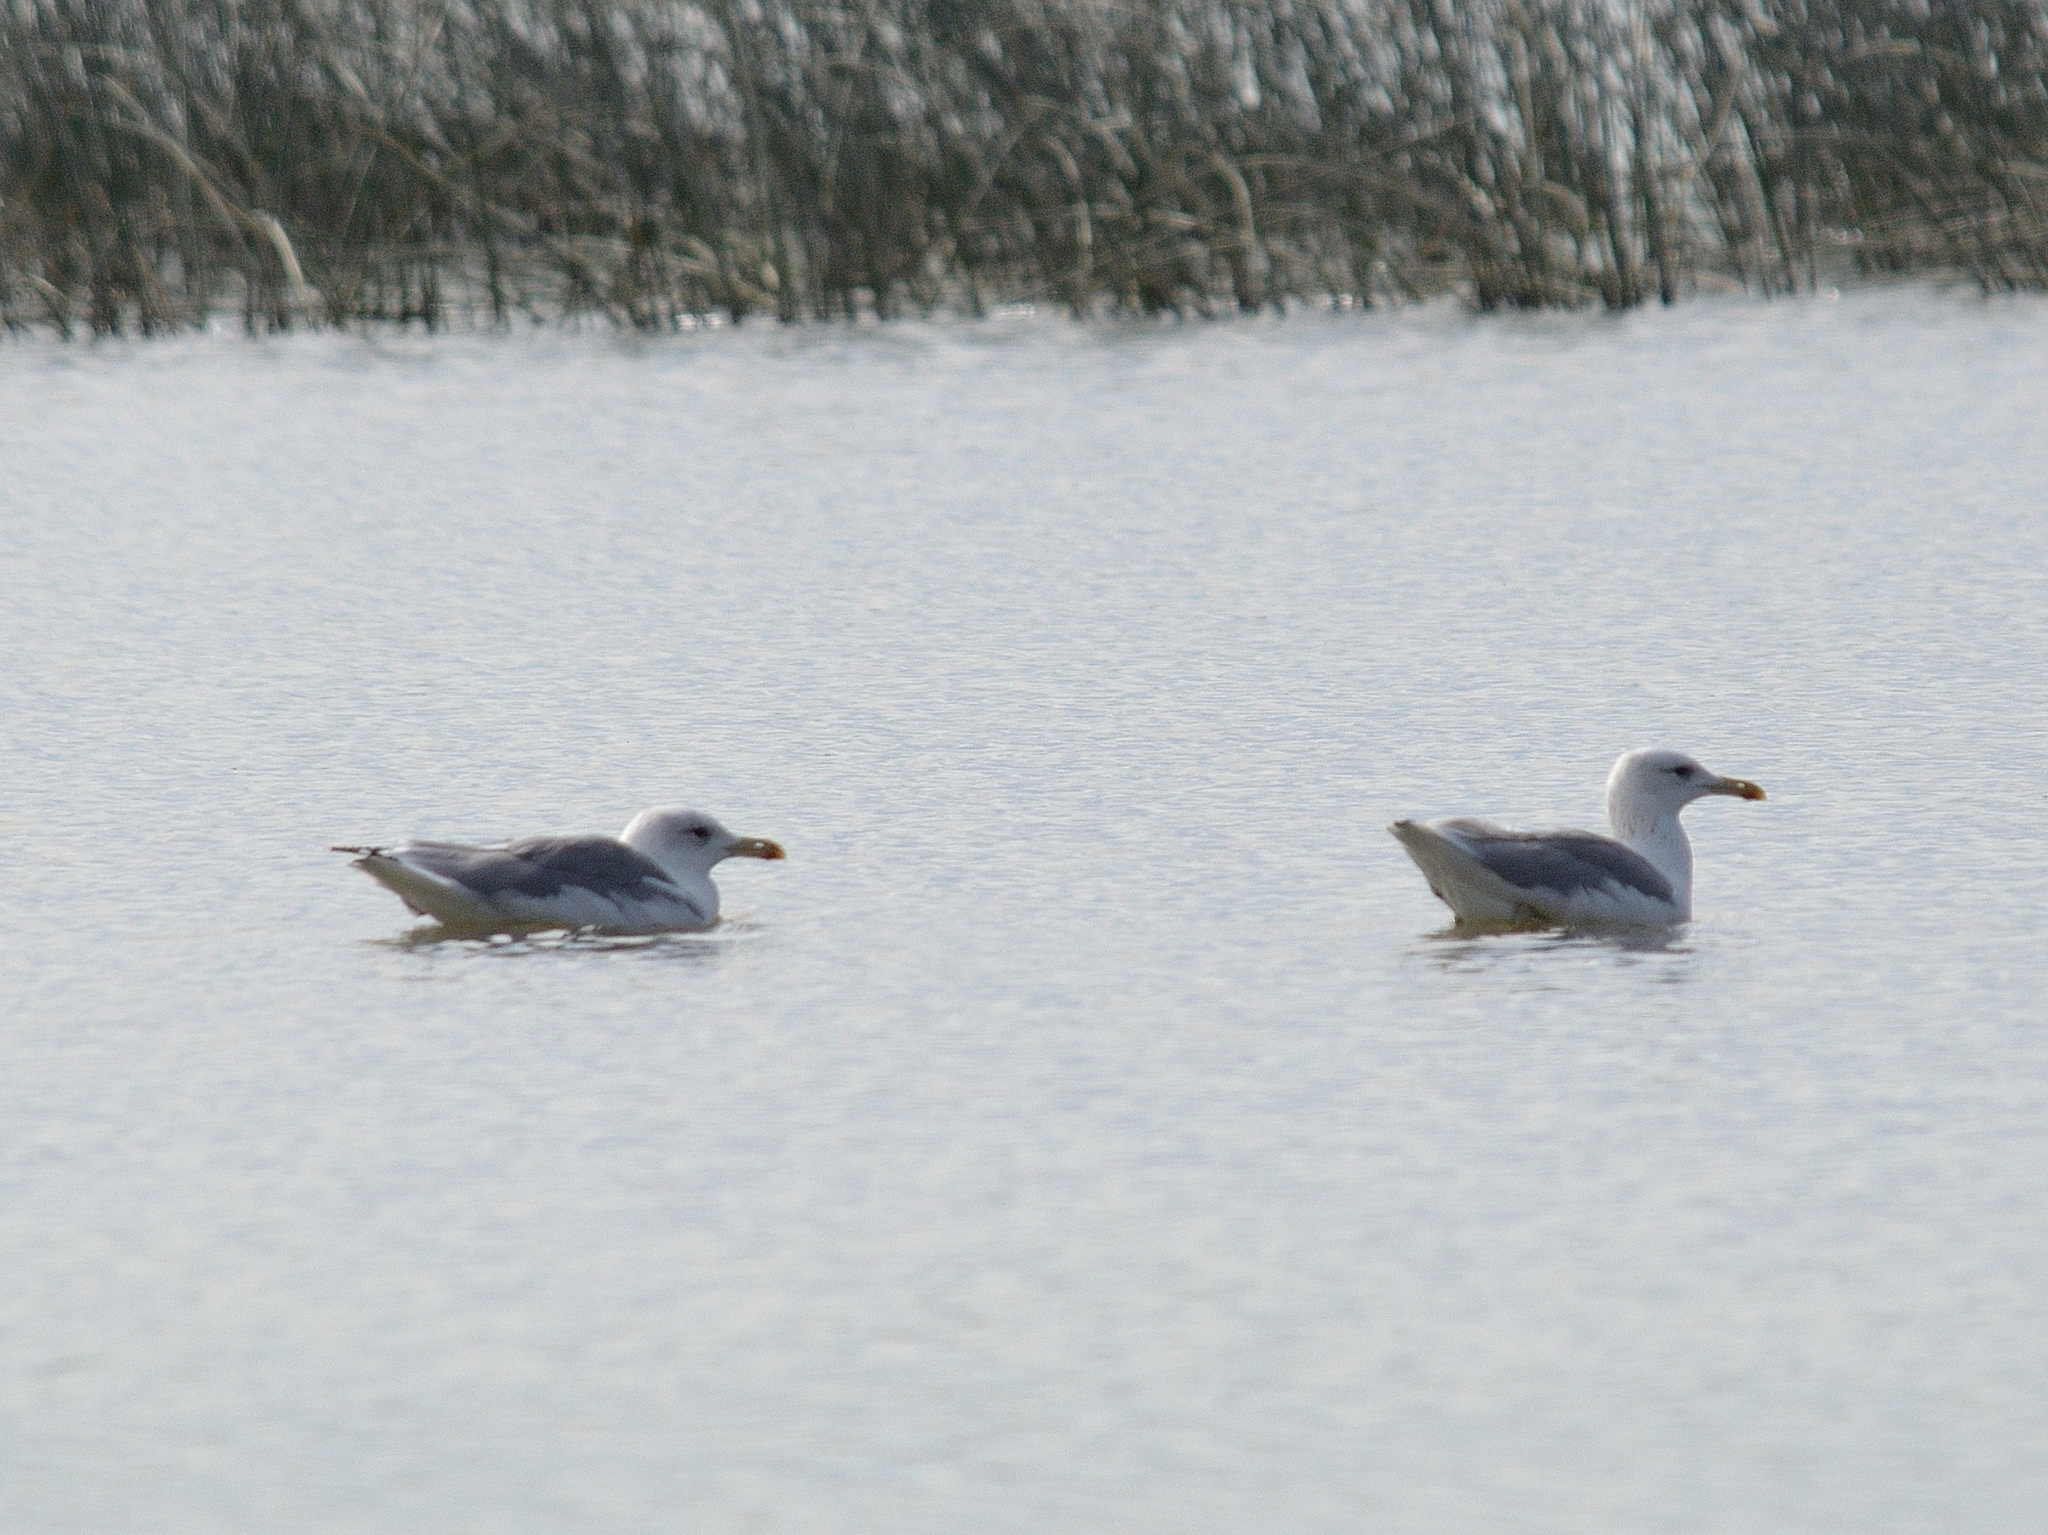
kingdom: Animalia
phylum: Chordata
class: Aves
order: Charadriiformes
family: Laridae
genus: Larus
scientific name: Larus cachinnans
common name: Caspian gull
